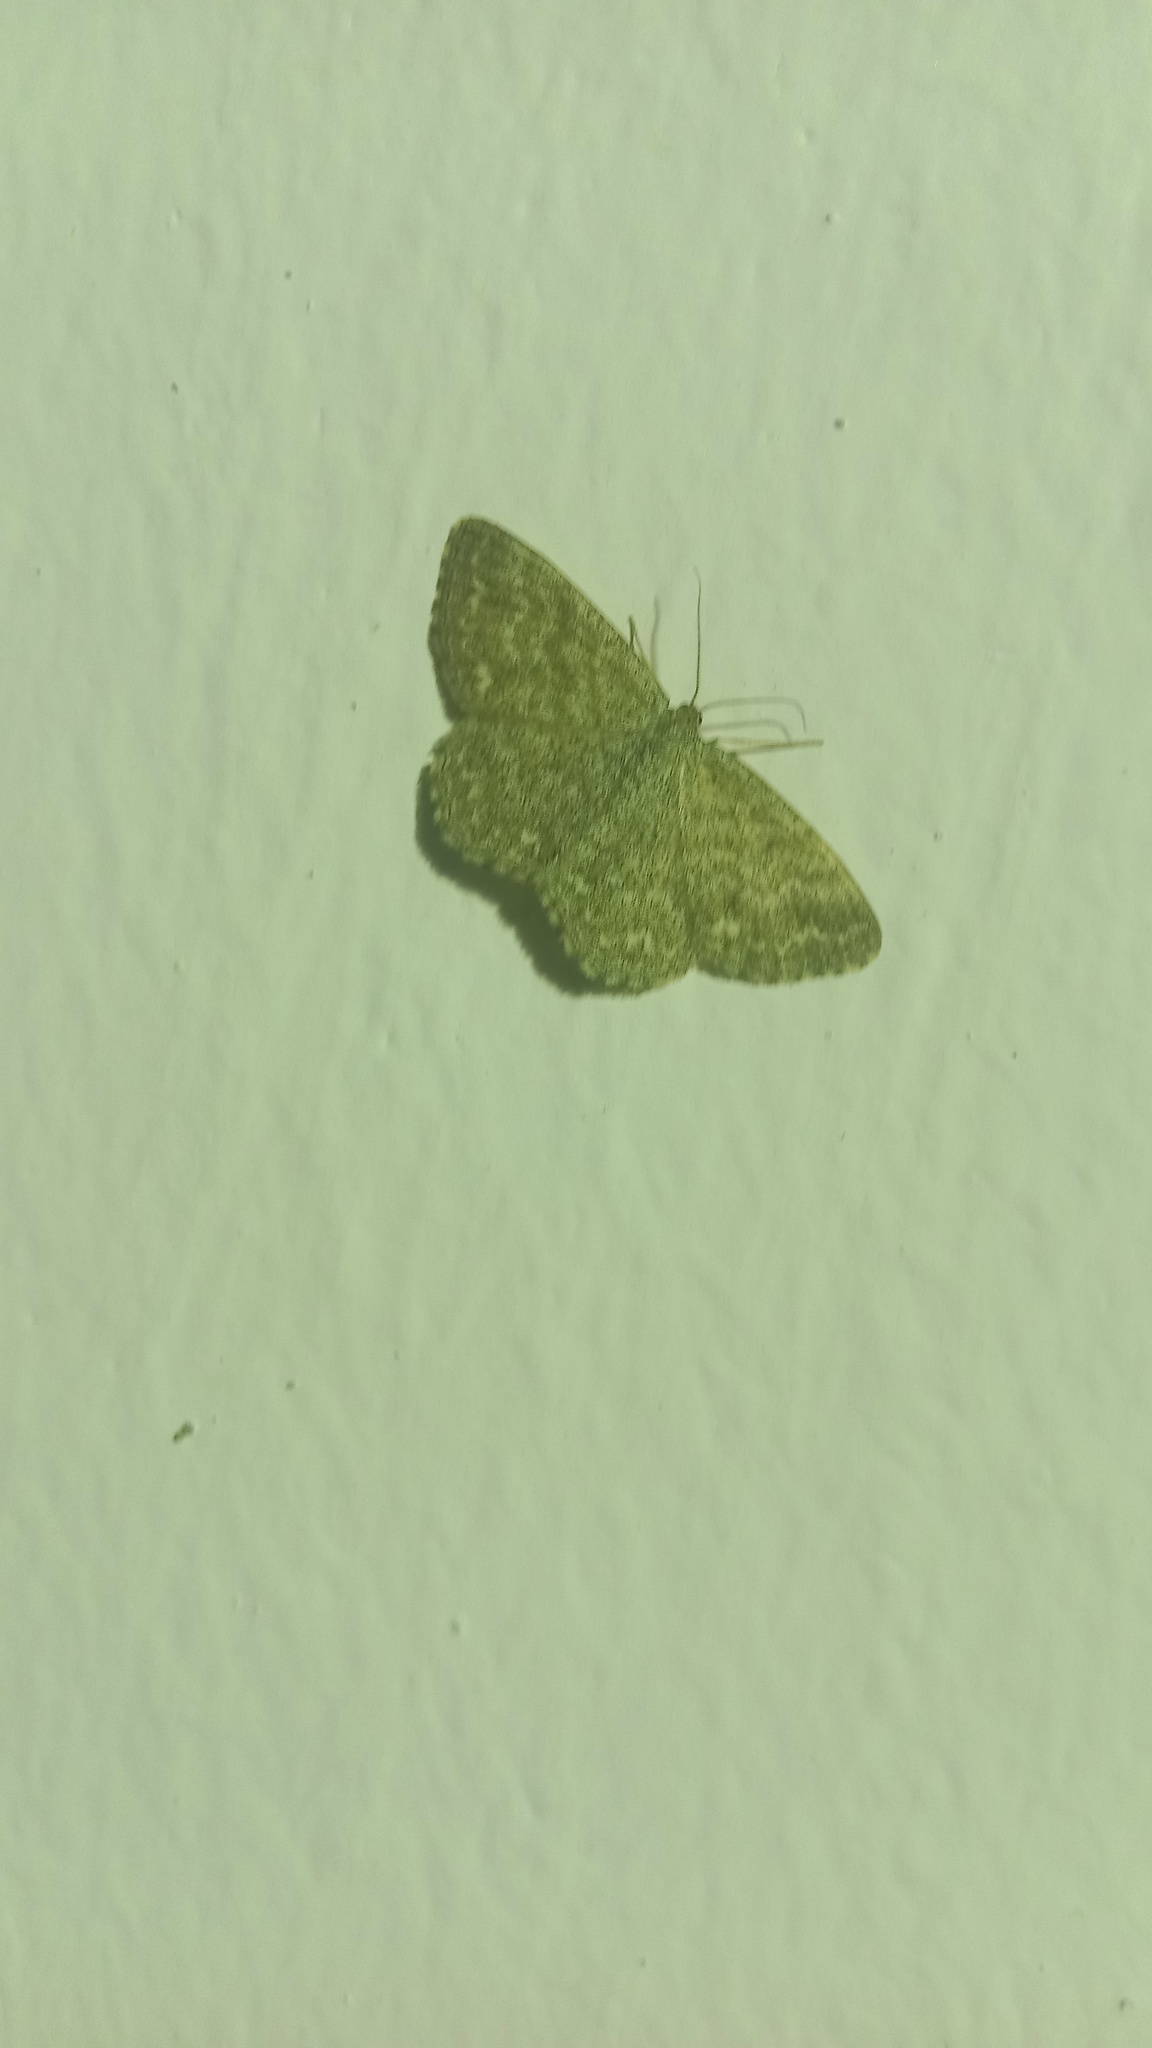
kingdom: Animalia
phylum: Arthropoda
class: Insecta
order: Lepidoptera
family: Geometridae
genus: Scopula
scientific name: Scopula immorata
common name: Lewes wave
